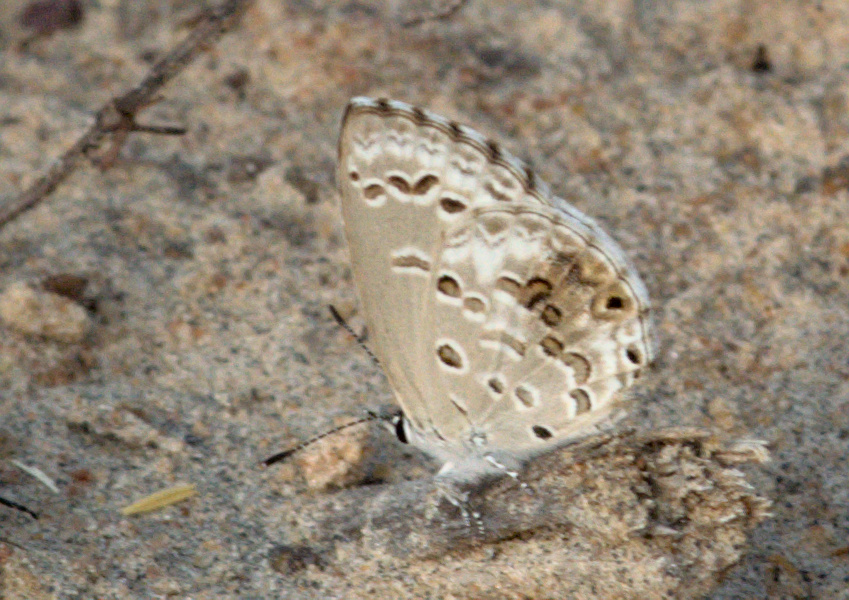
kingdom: Animalia
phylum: Arthropoda
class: Insecta
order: Lepidoptera
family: Lycaenidae
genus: Chilades
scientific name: Chilades laius
